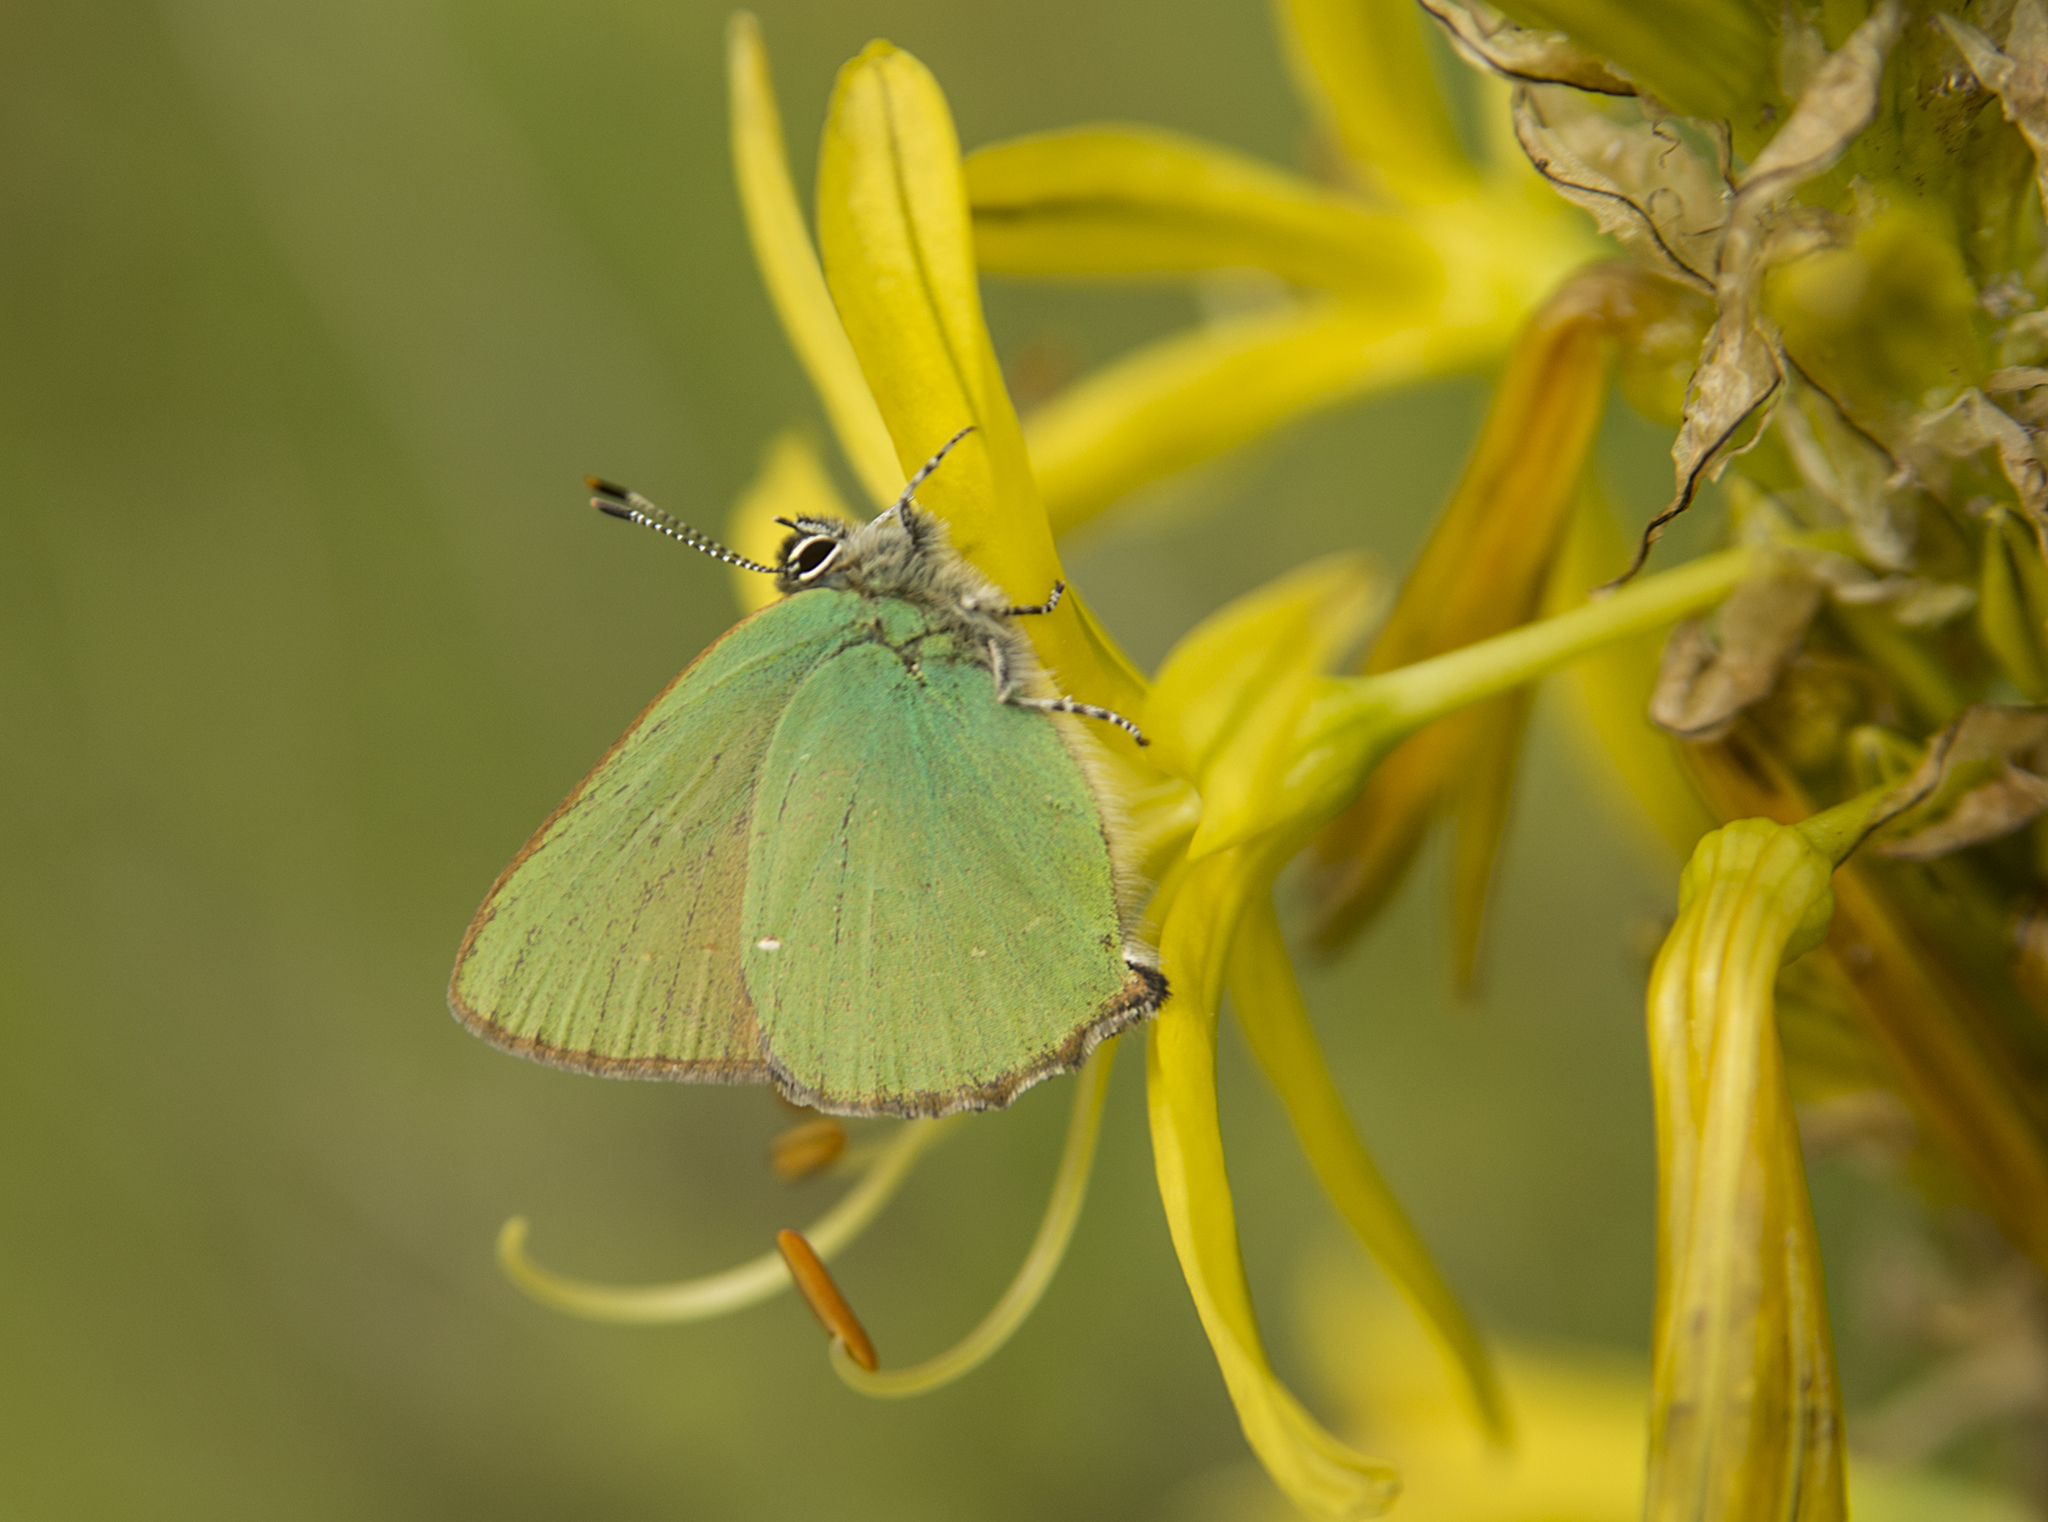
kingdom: Animalia
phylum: Arthropoda
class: Insecta
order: Lepidoptera
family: Lycaenidae
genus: Callophrys
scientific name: Callophrys rubi
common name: Green hairstreak
